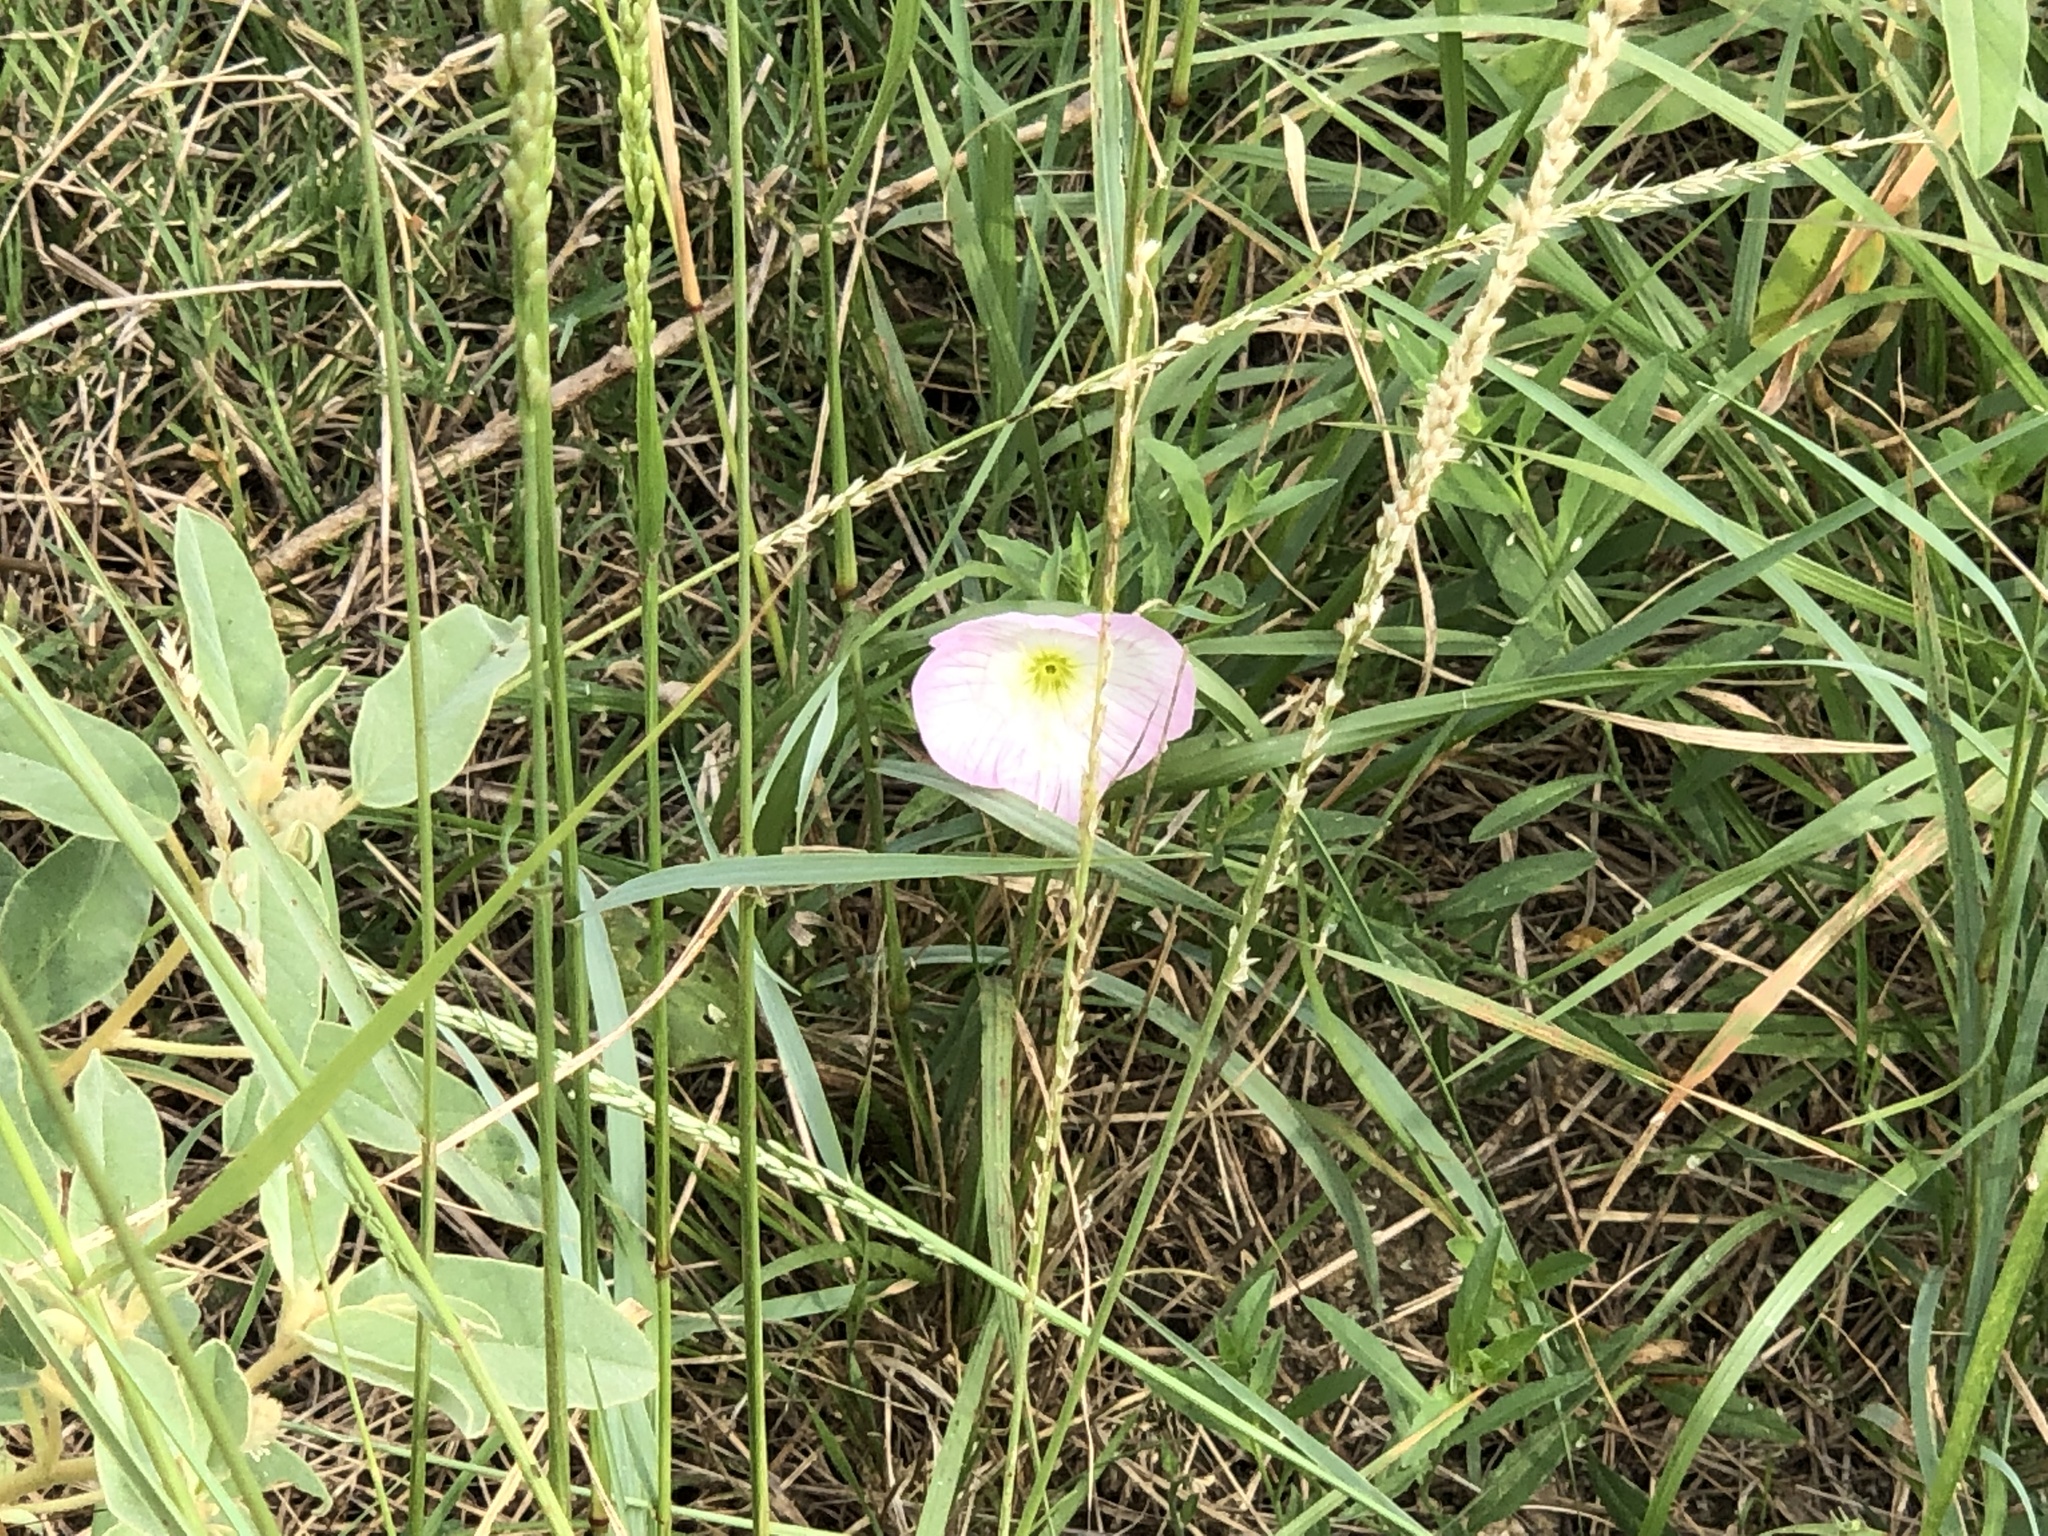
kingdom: Plantae
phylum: Tracheophyta
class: Magnoliopsida
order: Myrtales
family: Onagraceae
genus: Oenothera
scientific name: Oenothera speciosa
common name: White evening-primrose
